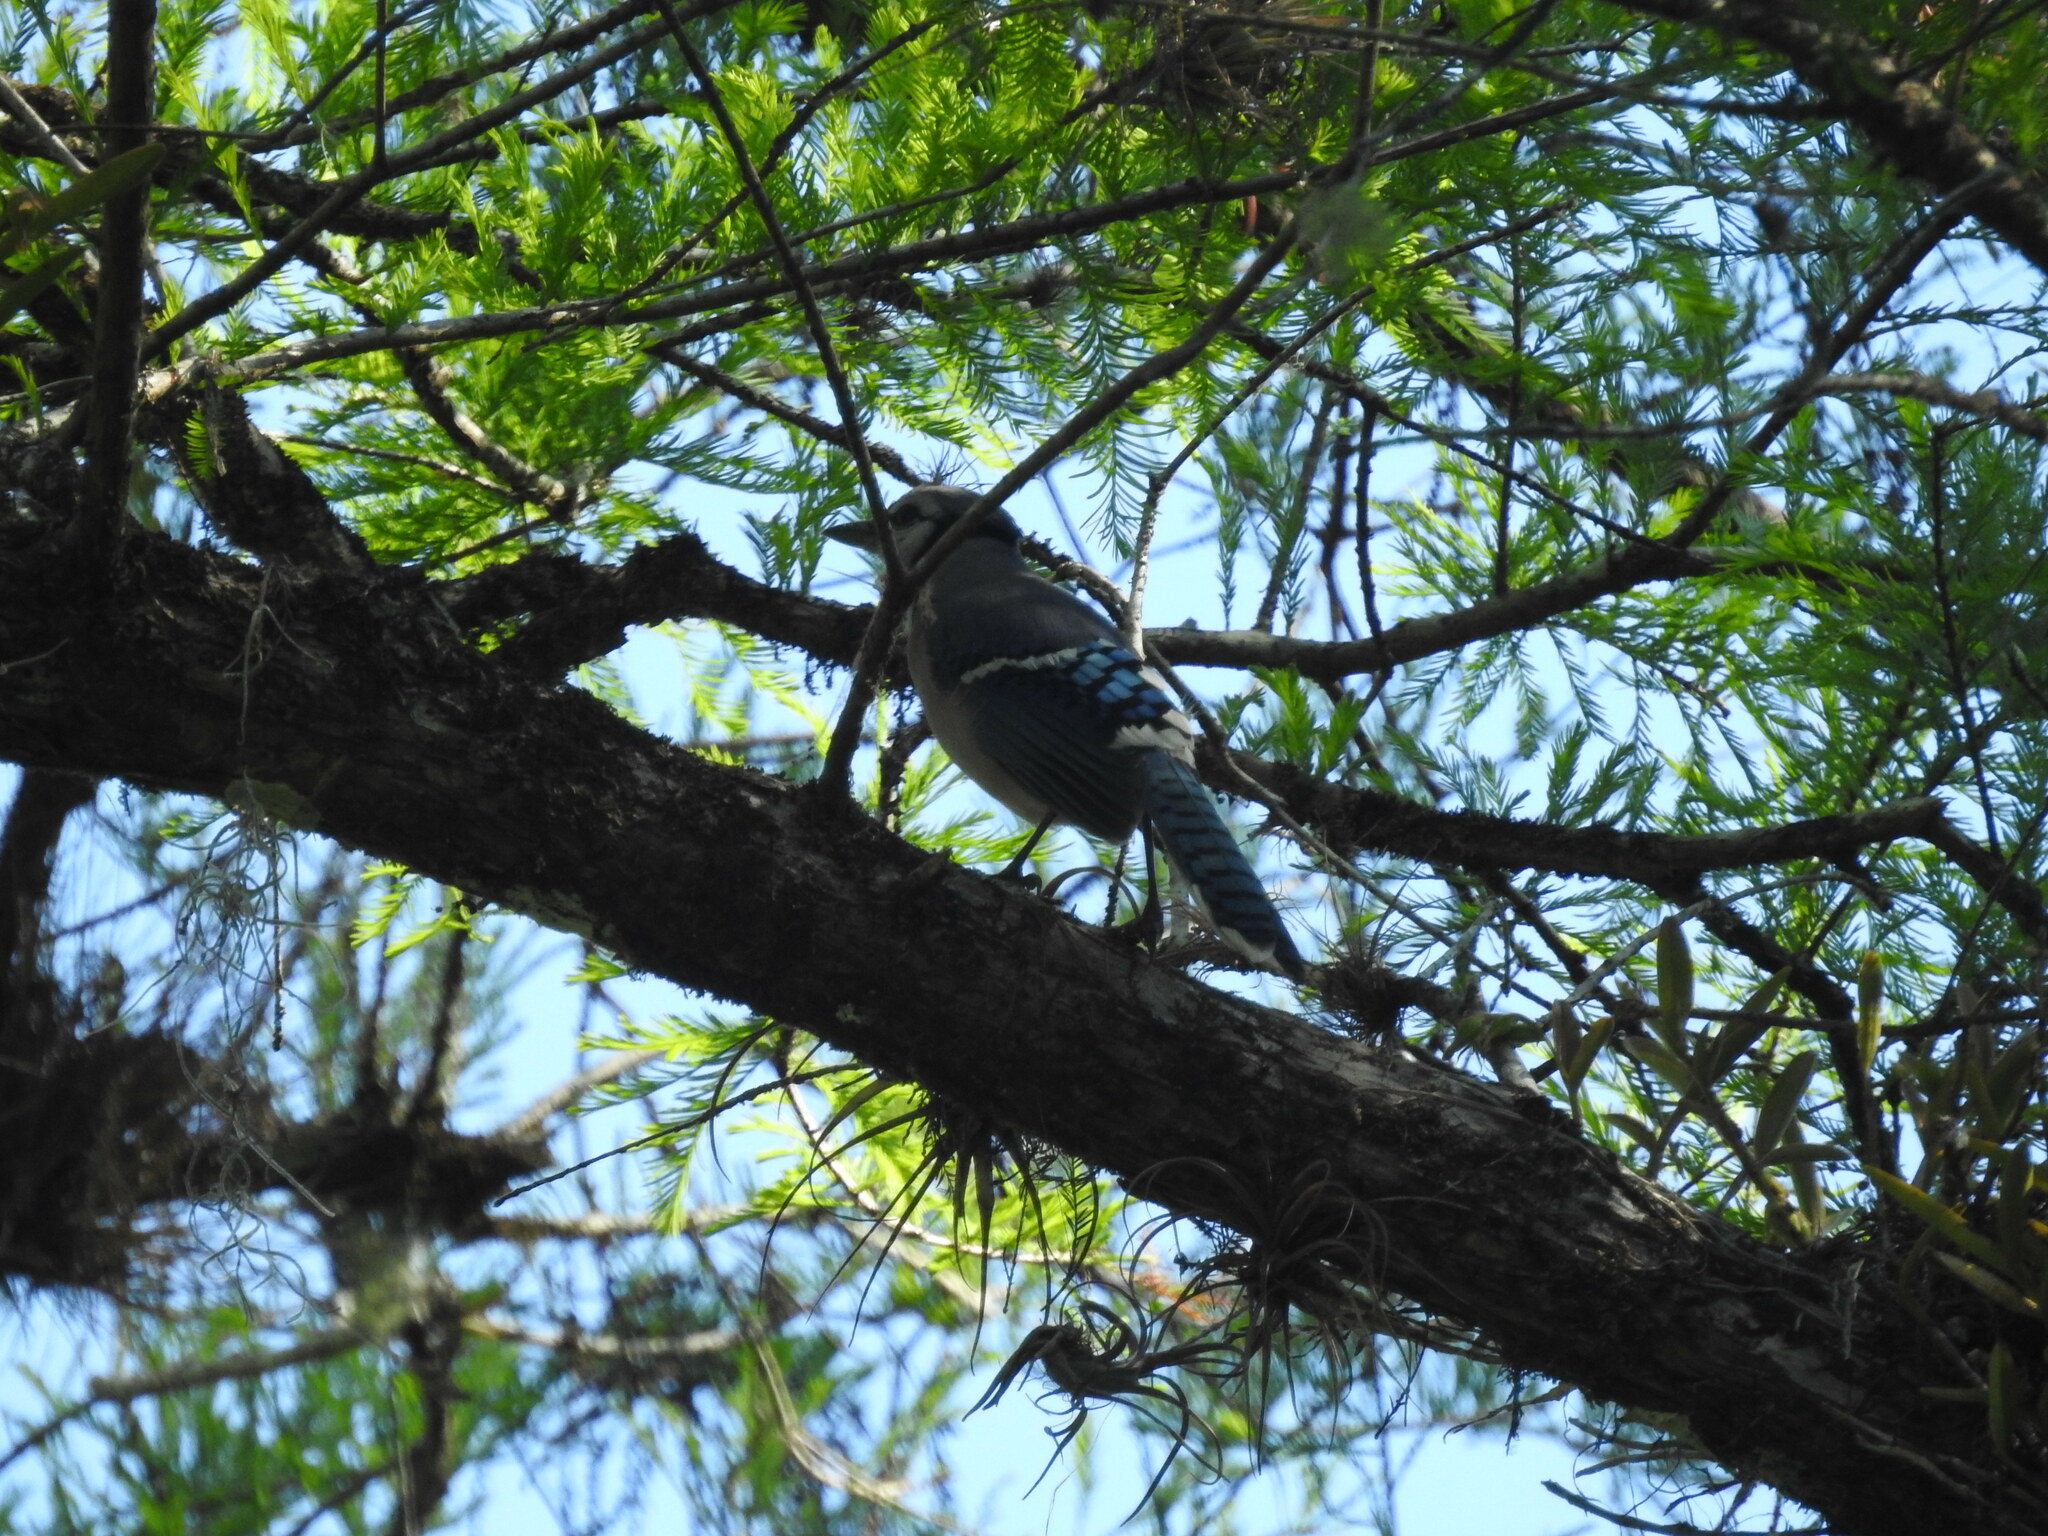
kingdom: Animalia
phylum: Chordata
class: Aves
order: Passeriformes
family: Corvidae
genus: Cyanocitta
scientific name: Cyanocitta cristata
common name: Blue jay
